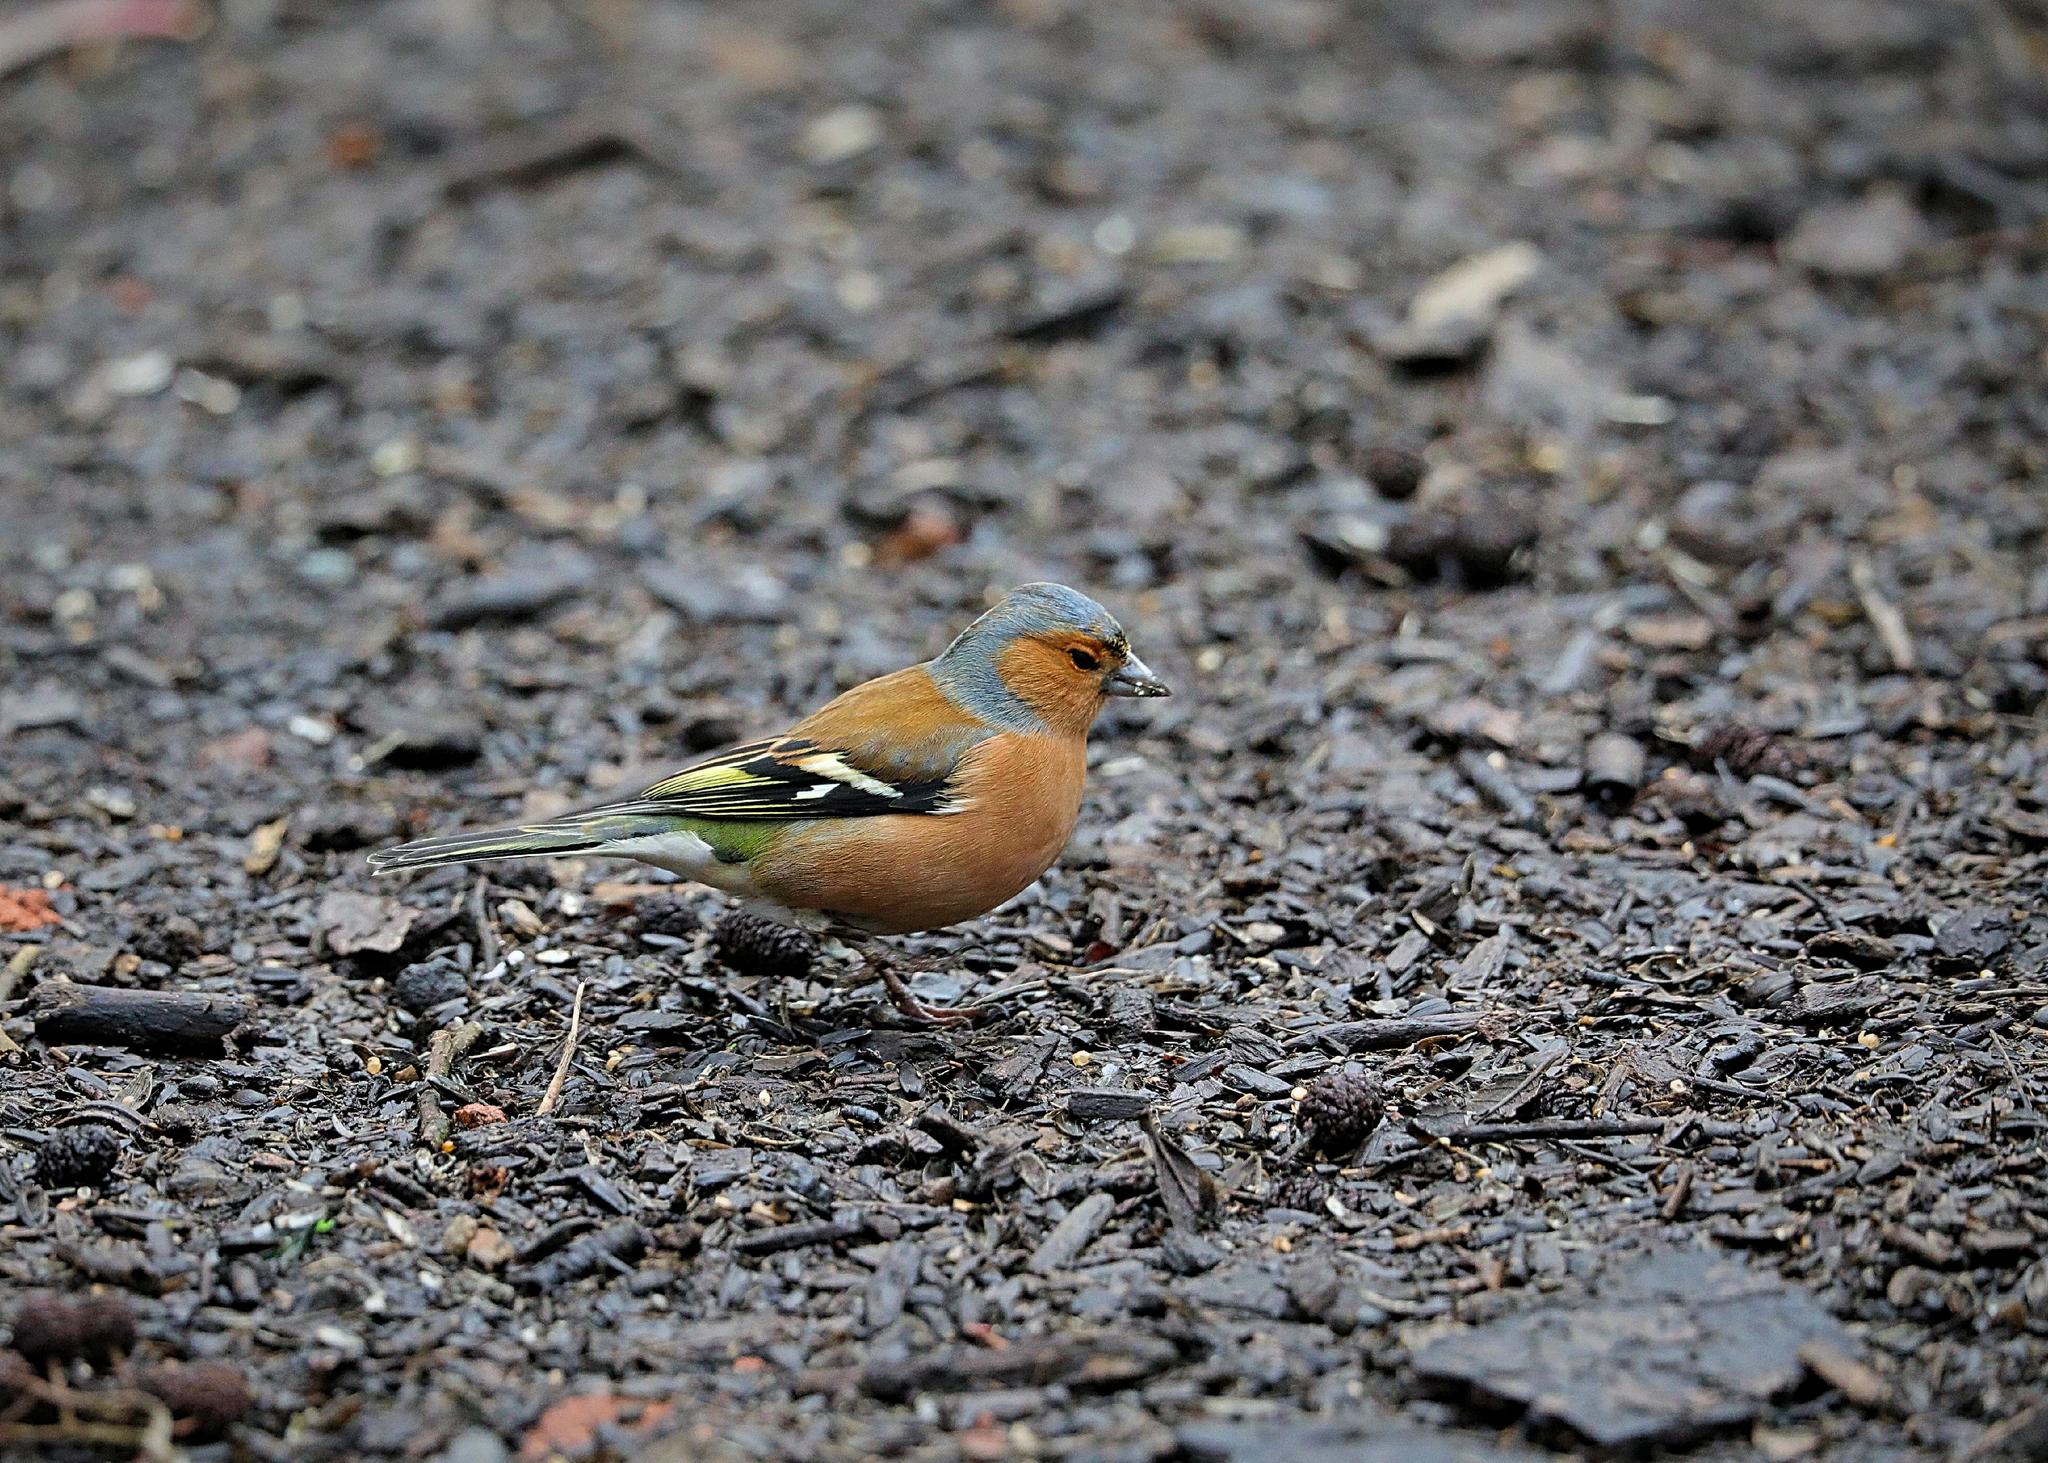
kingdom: Animalia
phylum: Chordata
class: Aves
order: Passeriformes
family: Fringillidae
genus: Fringilla
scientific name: Fringilla coelebs
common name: Common chaffinch
